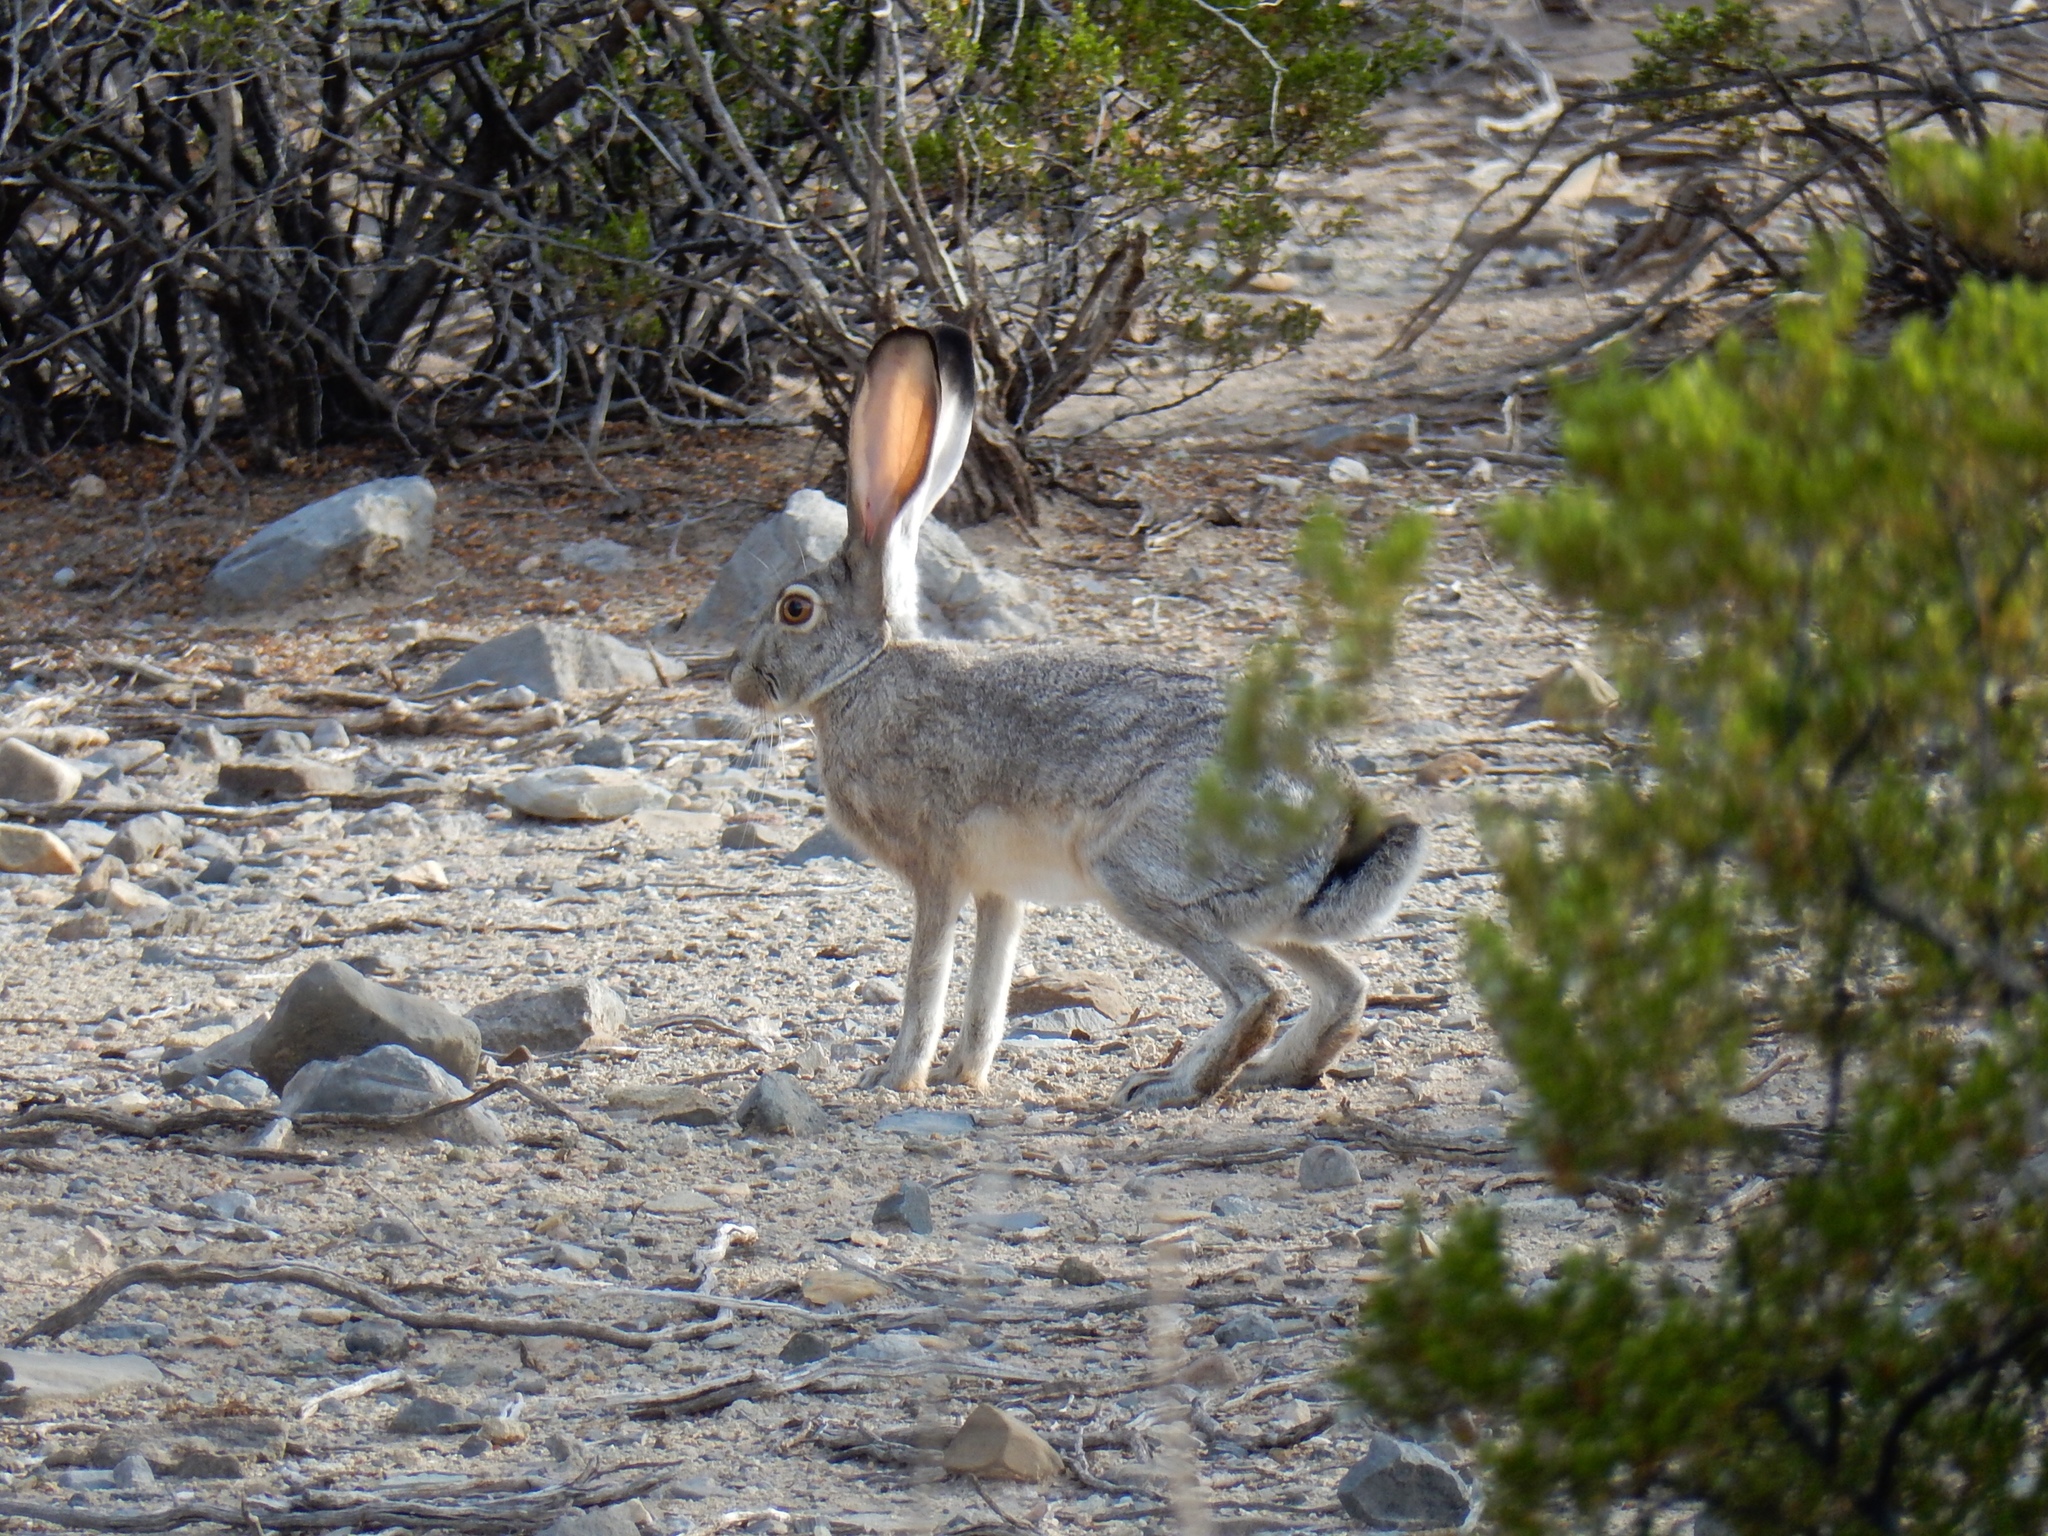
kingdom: Animalia
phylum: Chordata
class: Mammalia
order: Lagomorpha
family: Leporidae
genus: Lepus
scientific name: Lepus californicus
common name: Black-tailed jackrabbit
